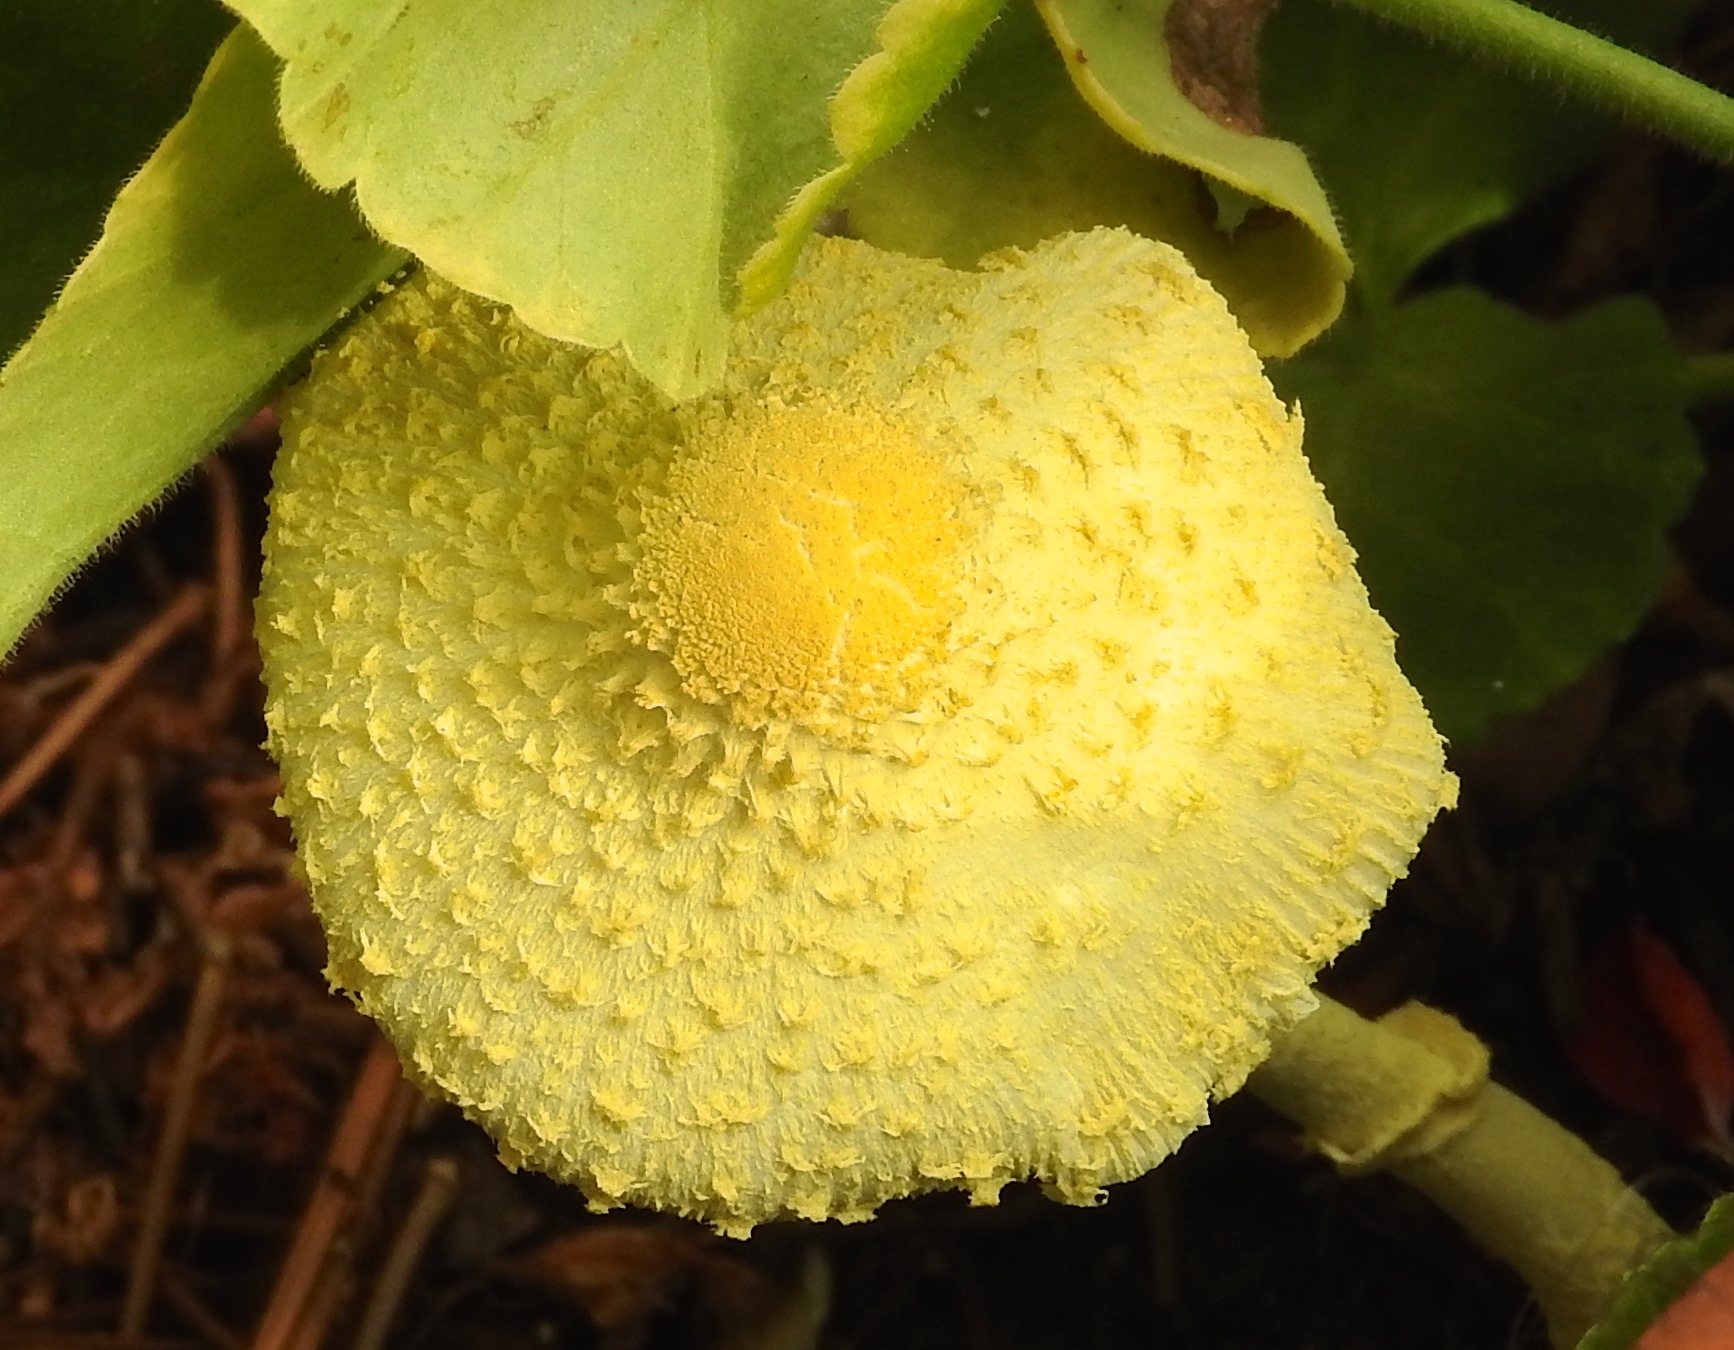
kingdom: Fungi
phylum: Basidiomycota
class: Agaricomycetes
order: Agaricales
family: Agaricaceae
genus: Leucocoprinus
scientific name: Leucocoprinus birnbaumii
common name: Plantpot dapperling
